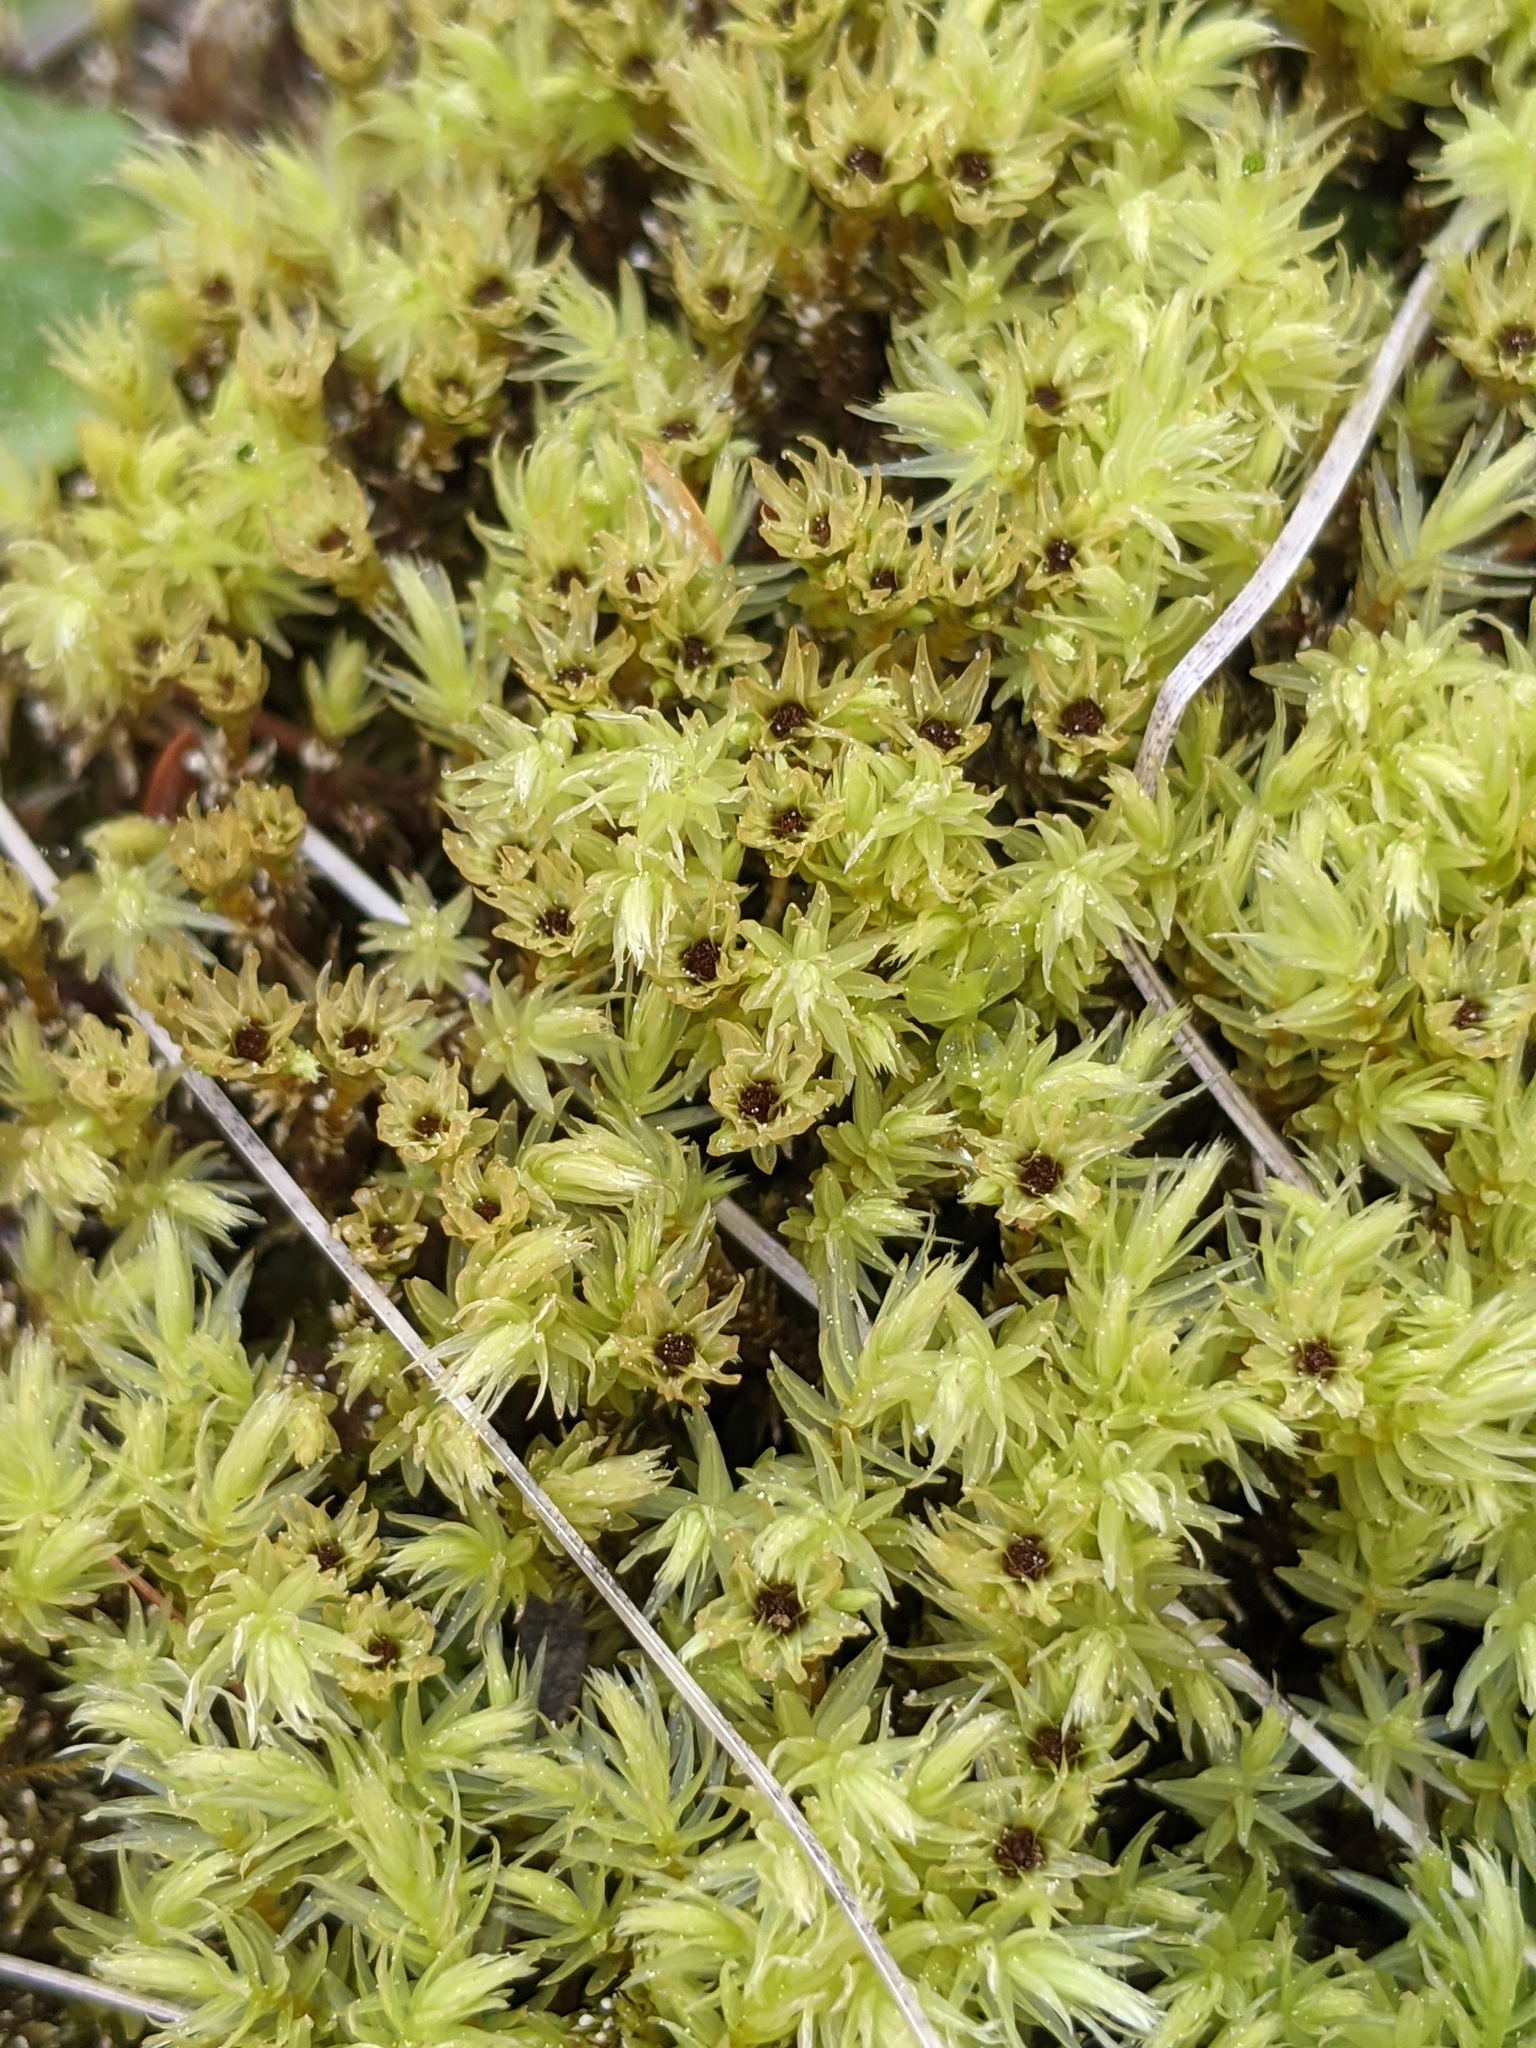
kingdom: Plantae
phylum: Bryophyta
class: Bryopsida
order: Aulacomniales
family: Aulacomniaceae
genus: Aulacomnium
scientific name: Aulacomnium palustre
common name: Bog groove-moss
